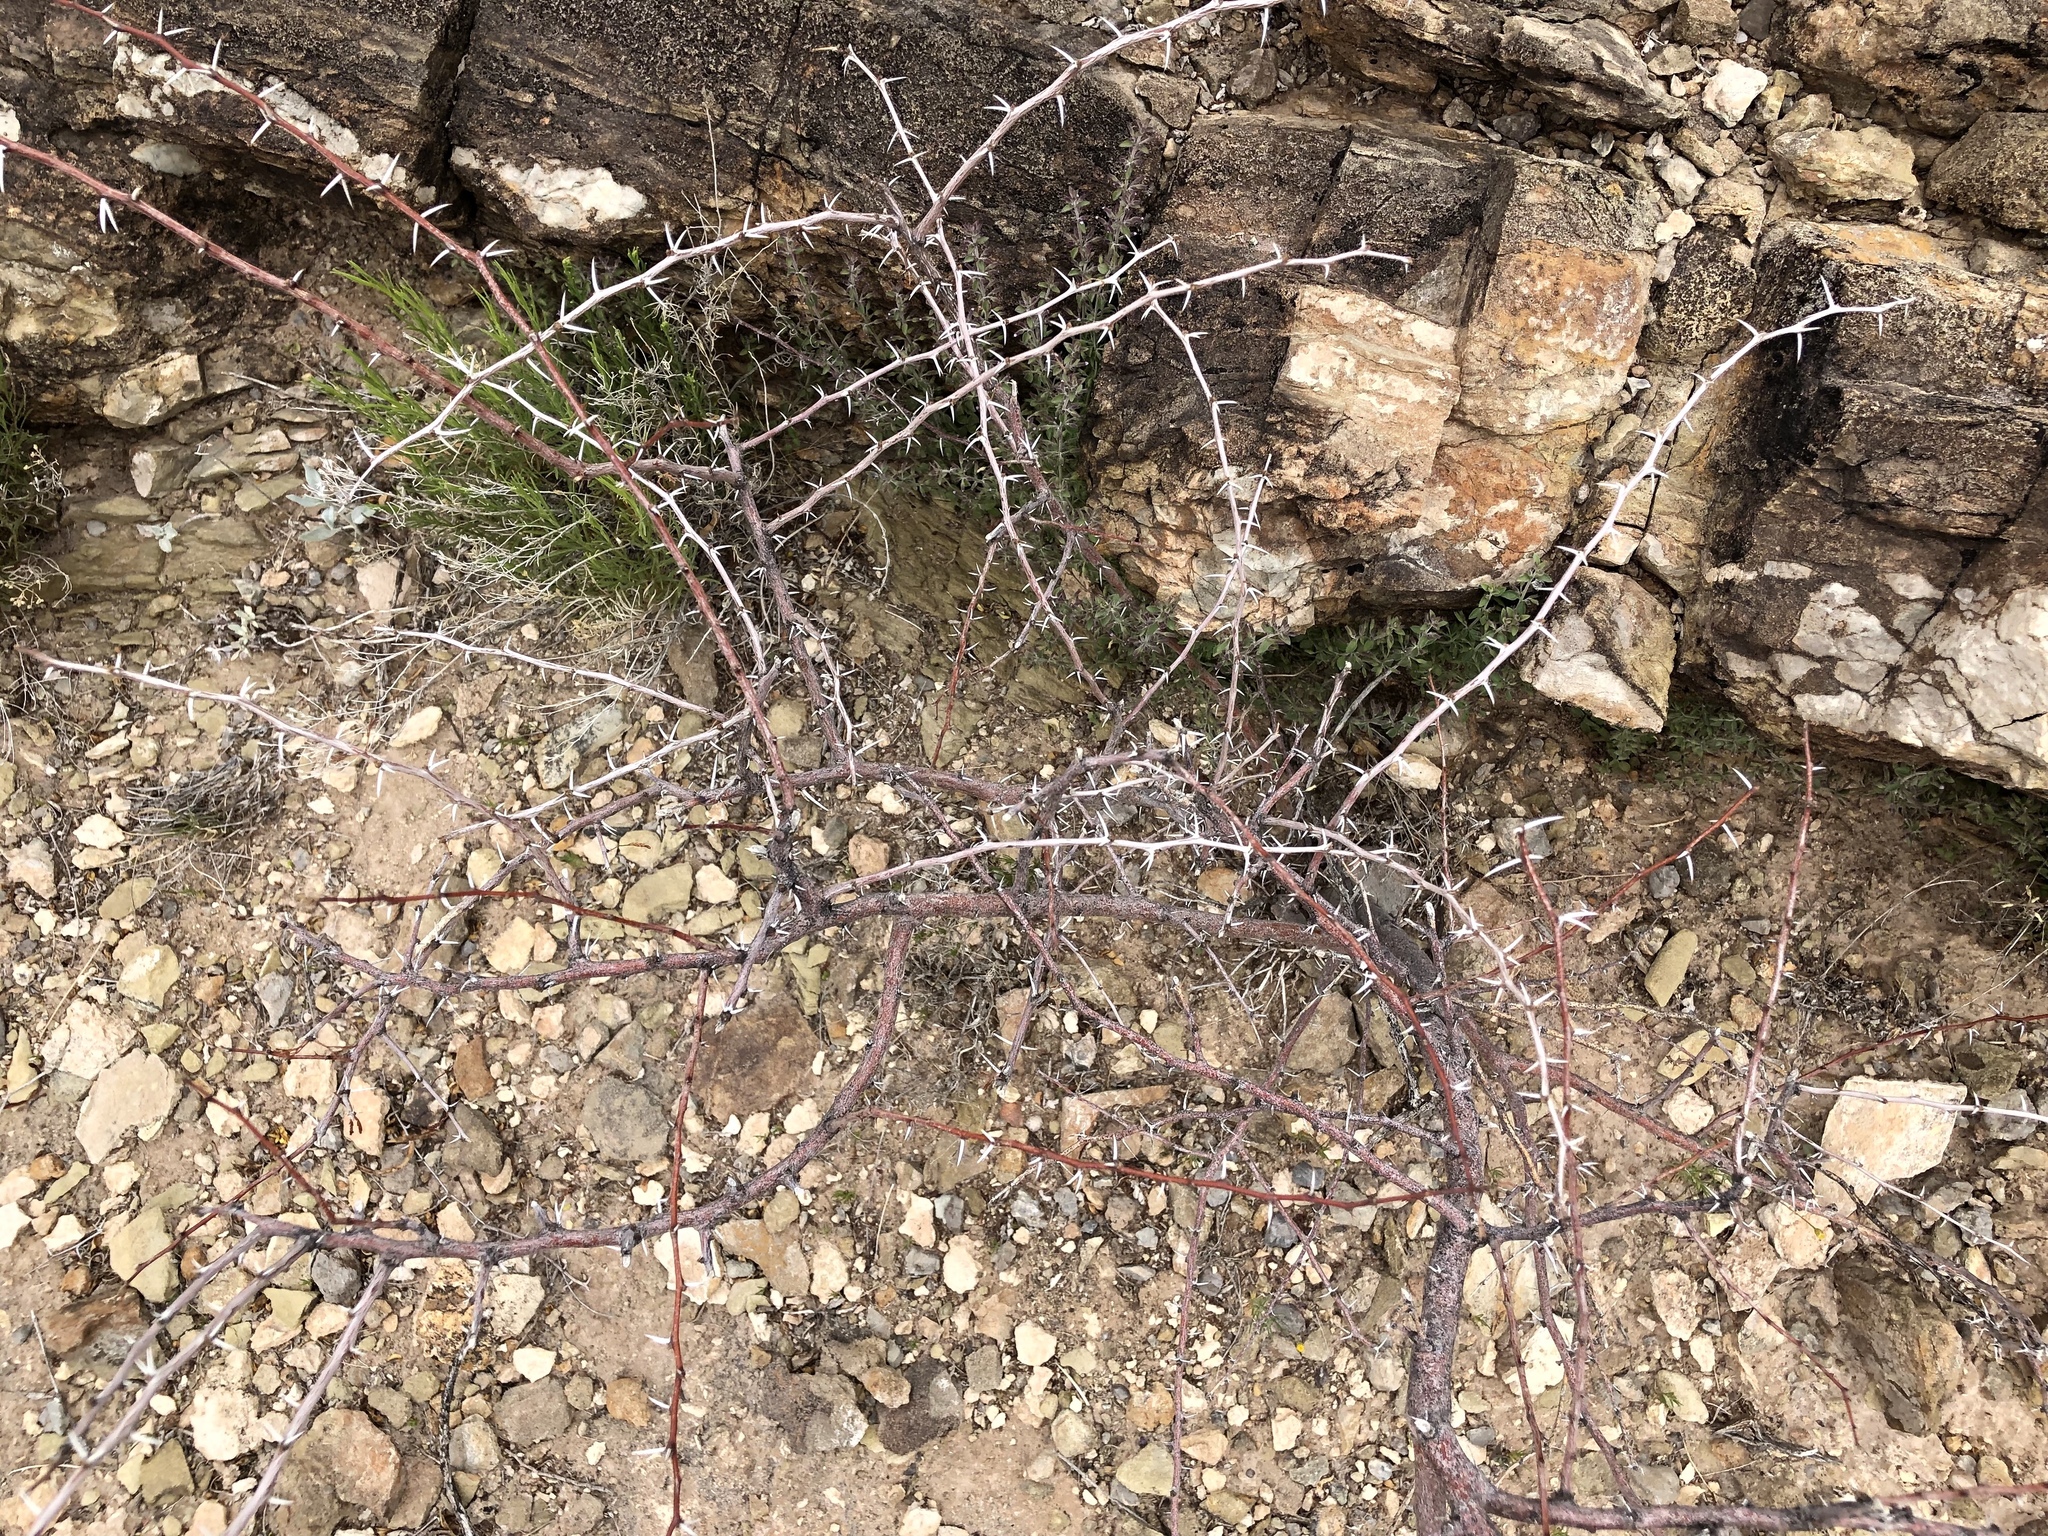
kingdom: Plantae
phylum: Tracheophyta
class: Magnoliopsida
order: Fabales
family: Fabaceae
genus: Vachellia
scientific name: Vachellia constricta
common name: Mescat acacia
